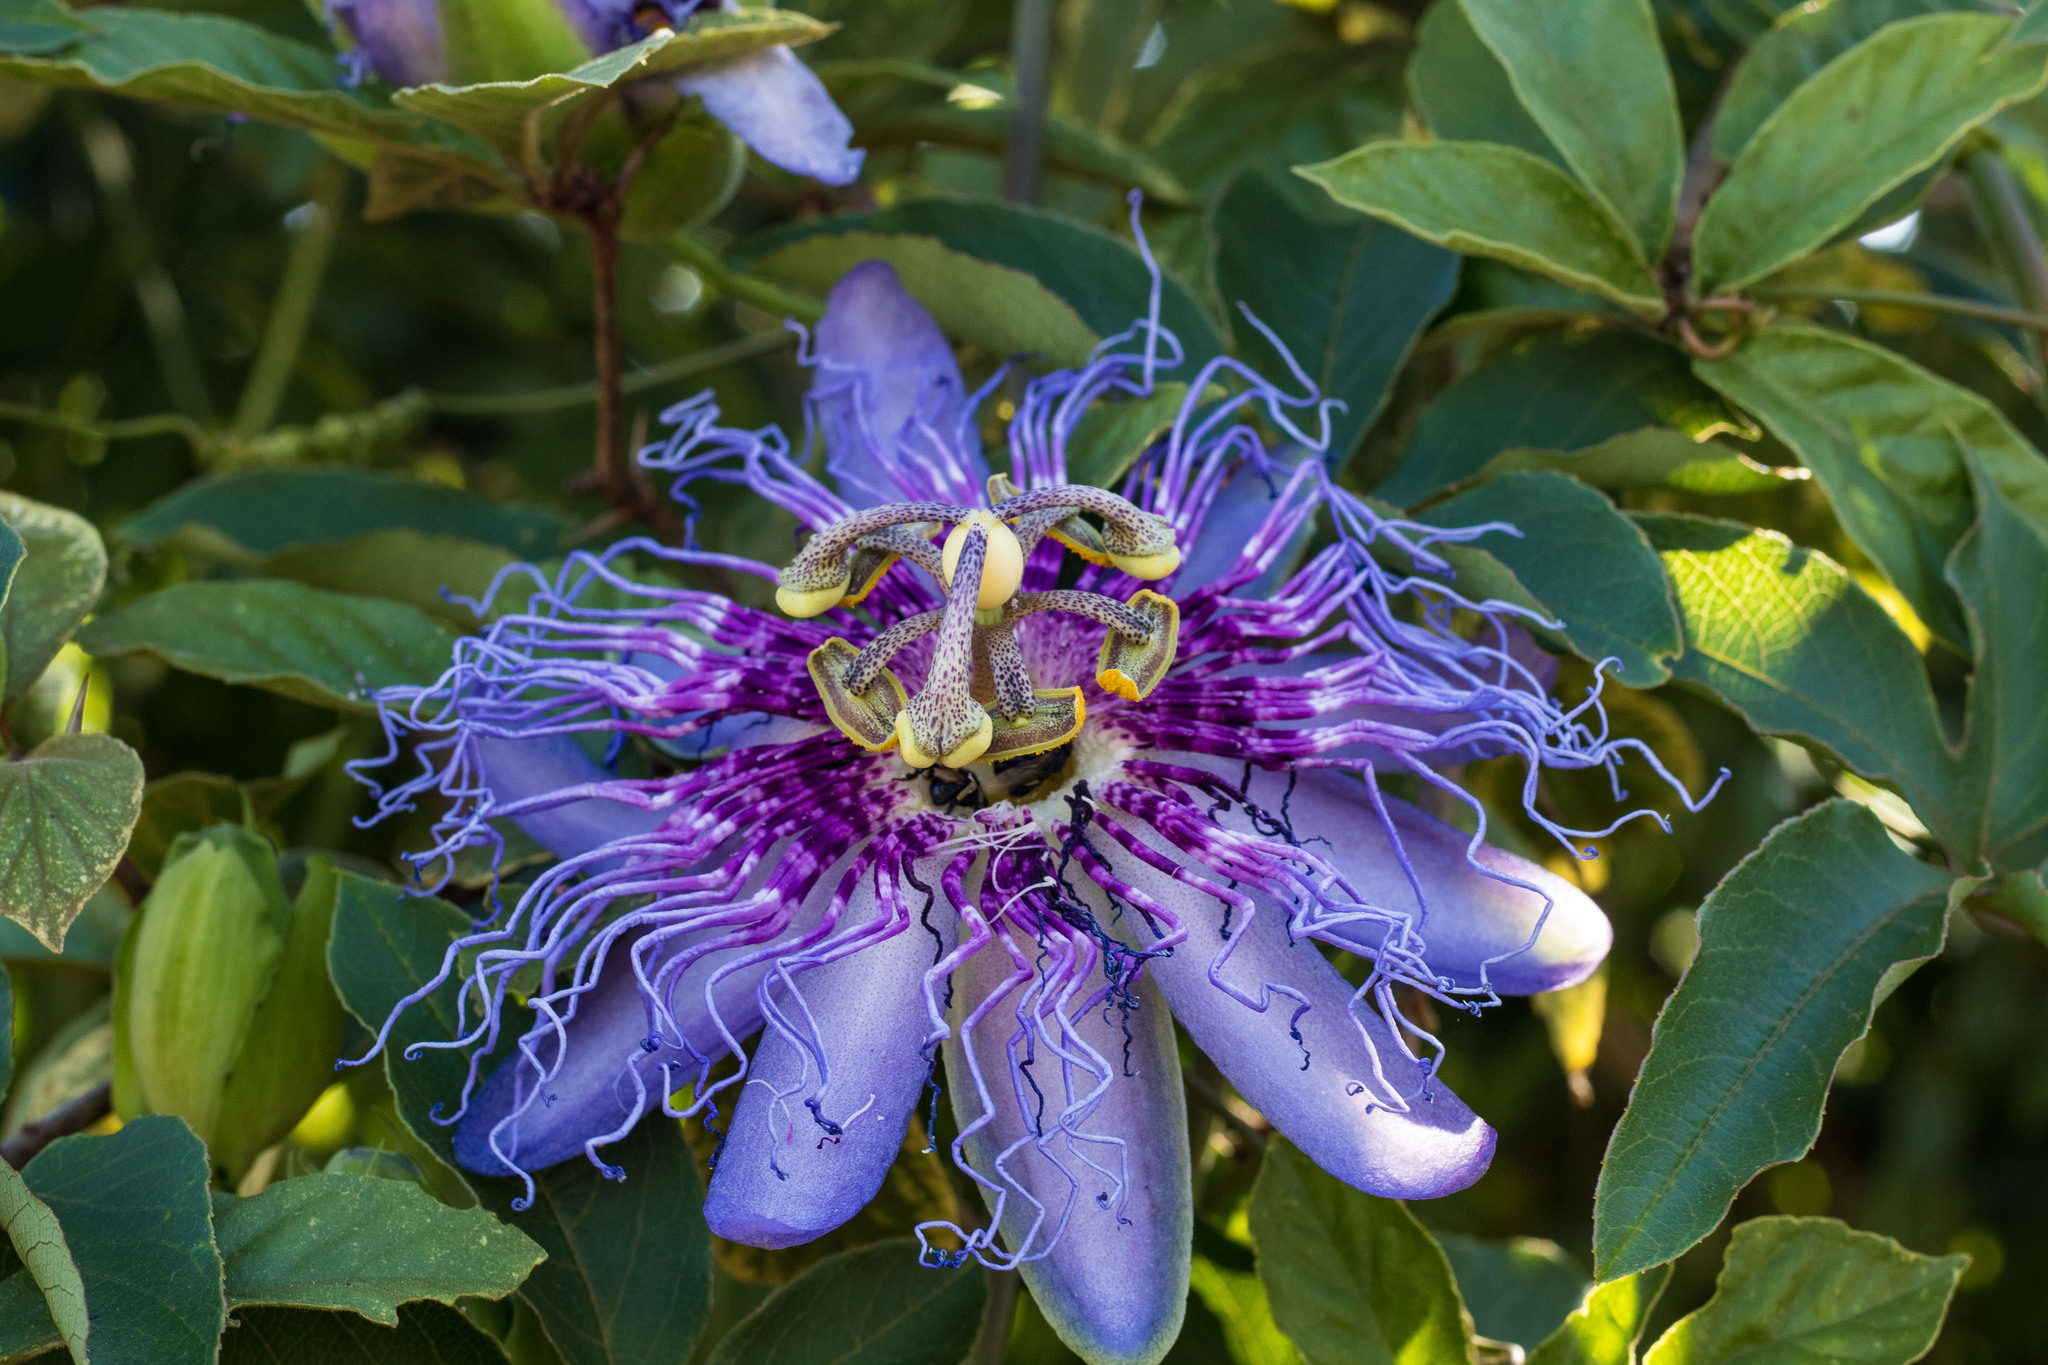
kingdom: Plantae
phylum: Tracheophyta
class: Magnoliopsida
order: Malpighiales
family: Passifloraceae
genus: Passiflora
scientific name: Passiflora cincinnata
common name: Crato passionvine
